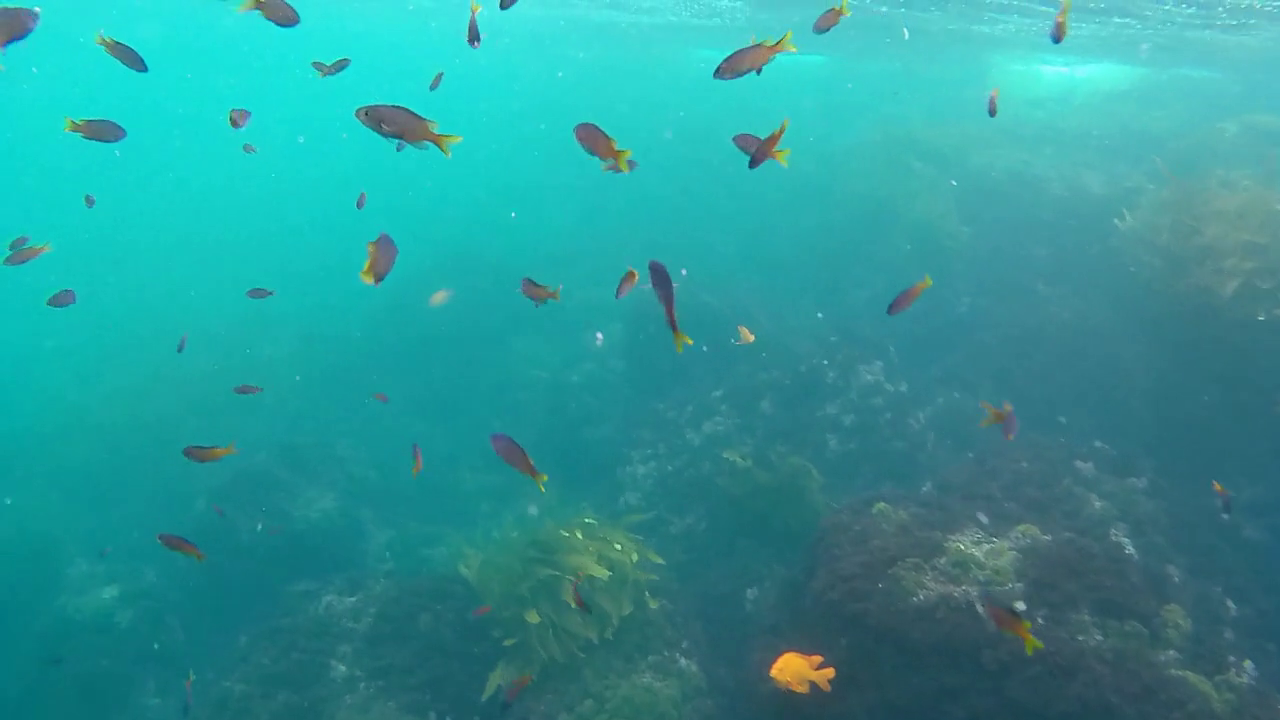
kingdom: Animalia
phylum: Chordata
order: Perciformes
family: Pomacentridae
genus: Chromis
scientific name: Chromis punctipinnis
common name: Blacksmith
